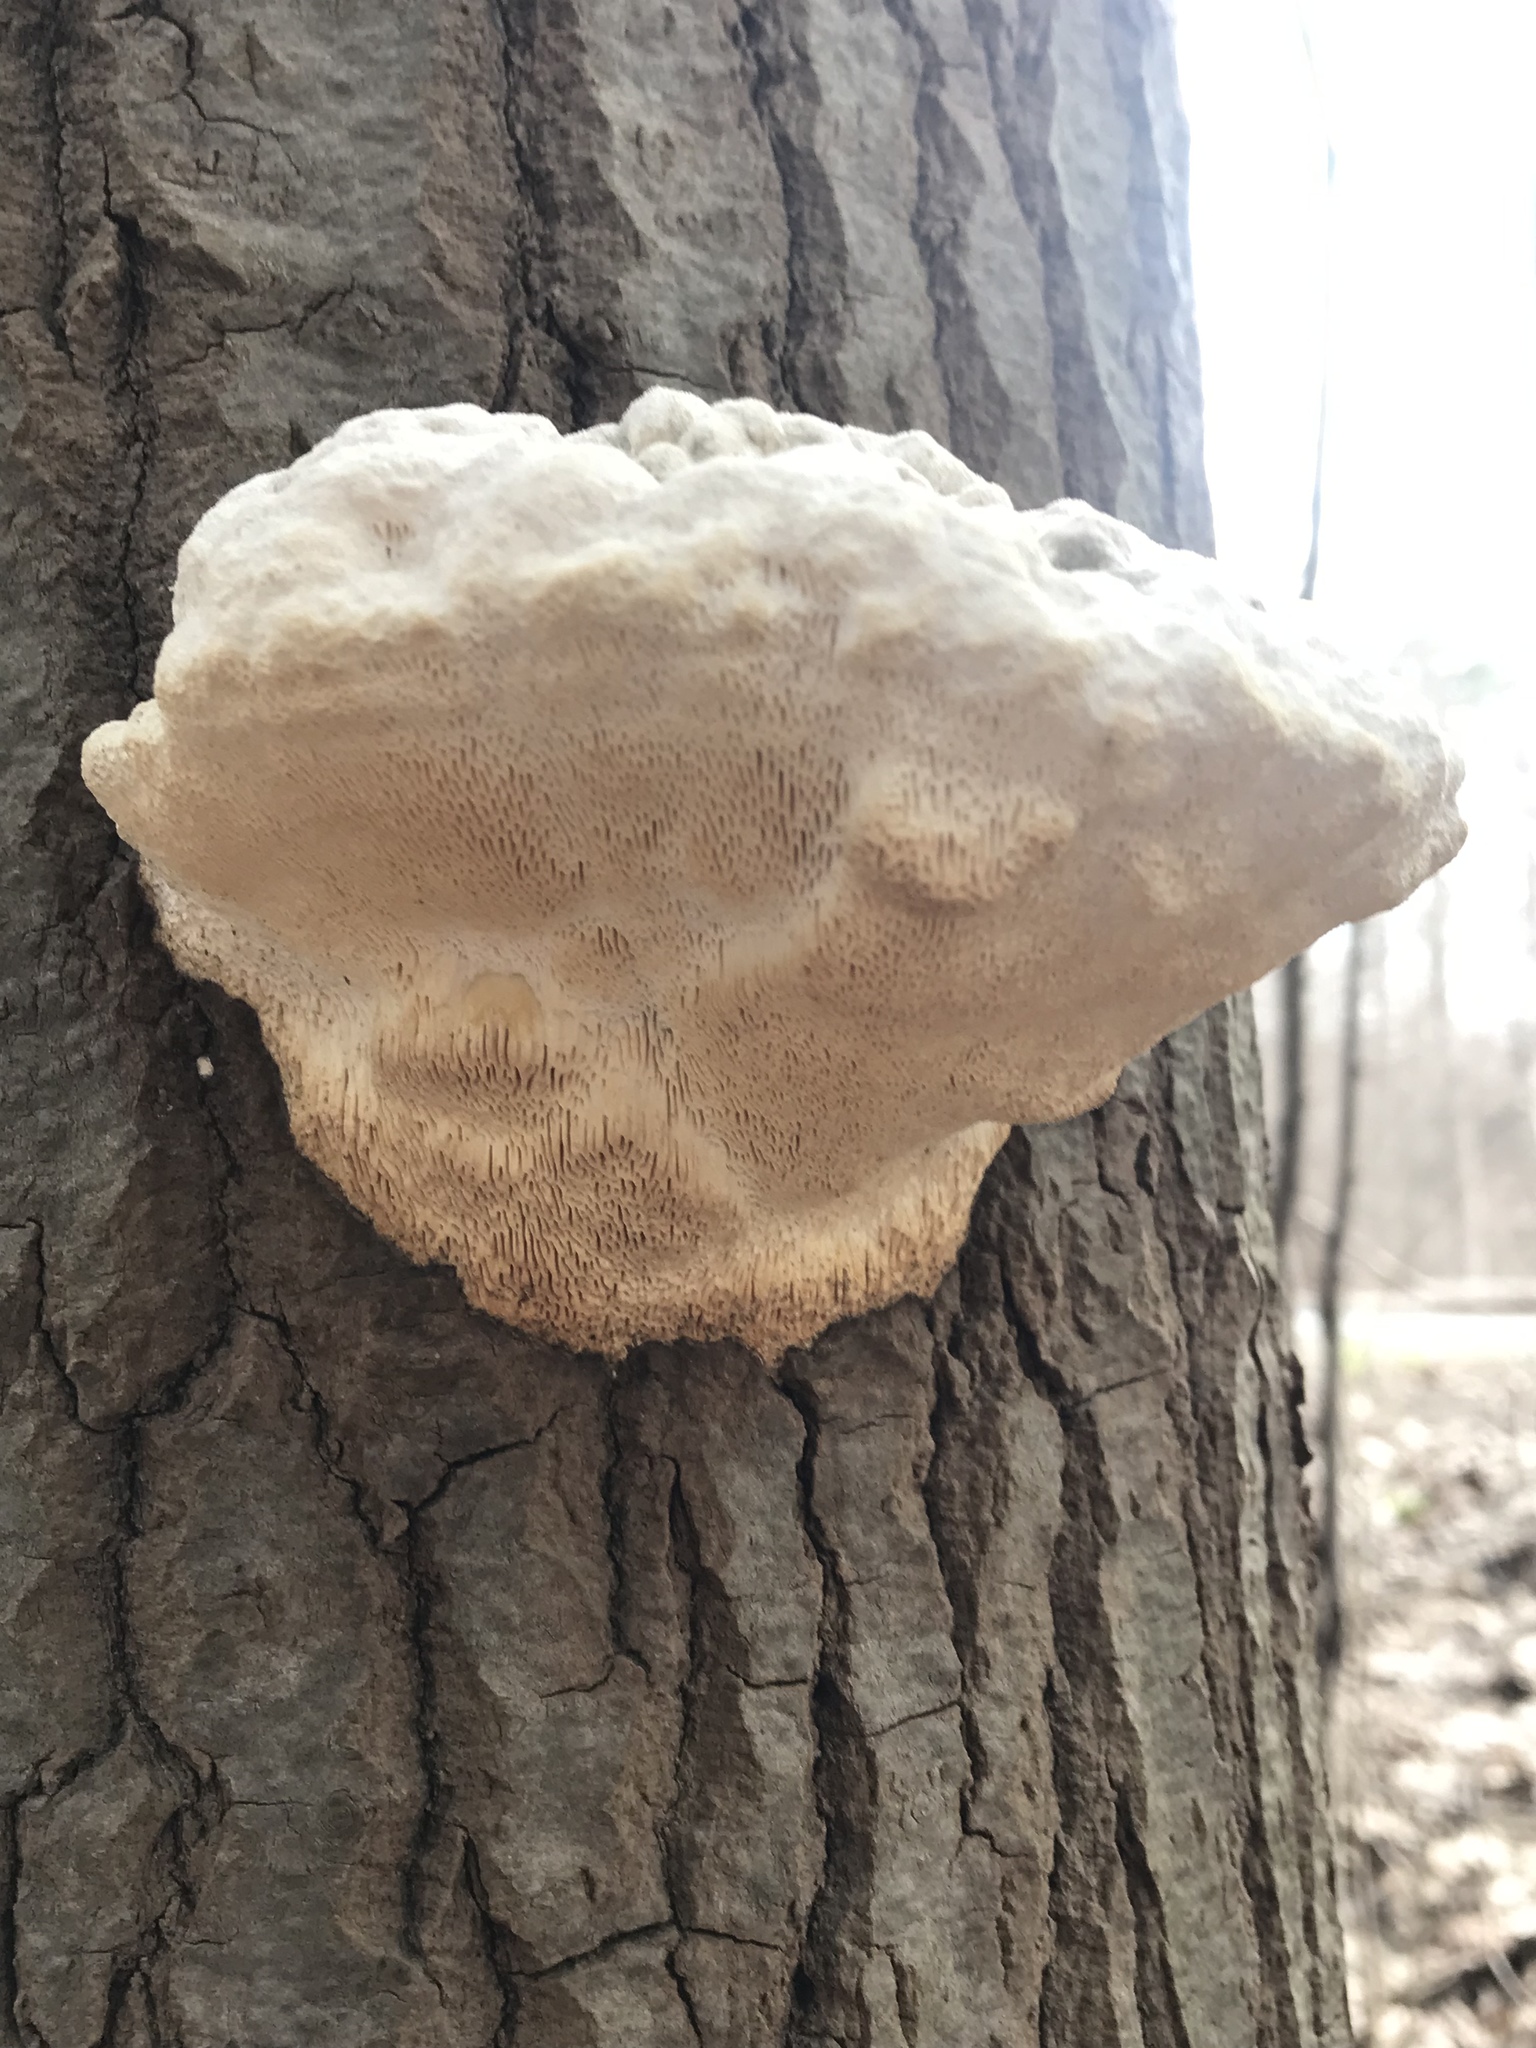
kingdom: Fungi
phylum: Basidiomycota
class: Agaricomycetes
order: Polyporales
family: Polyporaceae
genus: Trametes
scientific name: Trametes gibbosa
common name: Lumpy bracket
